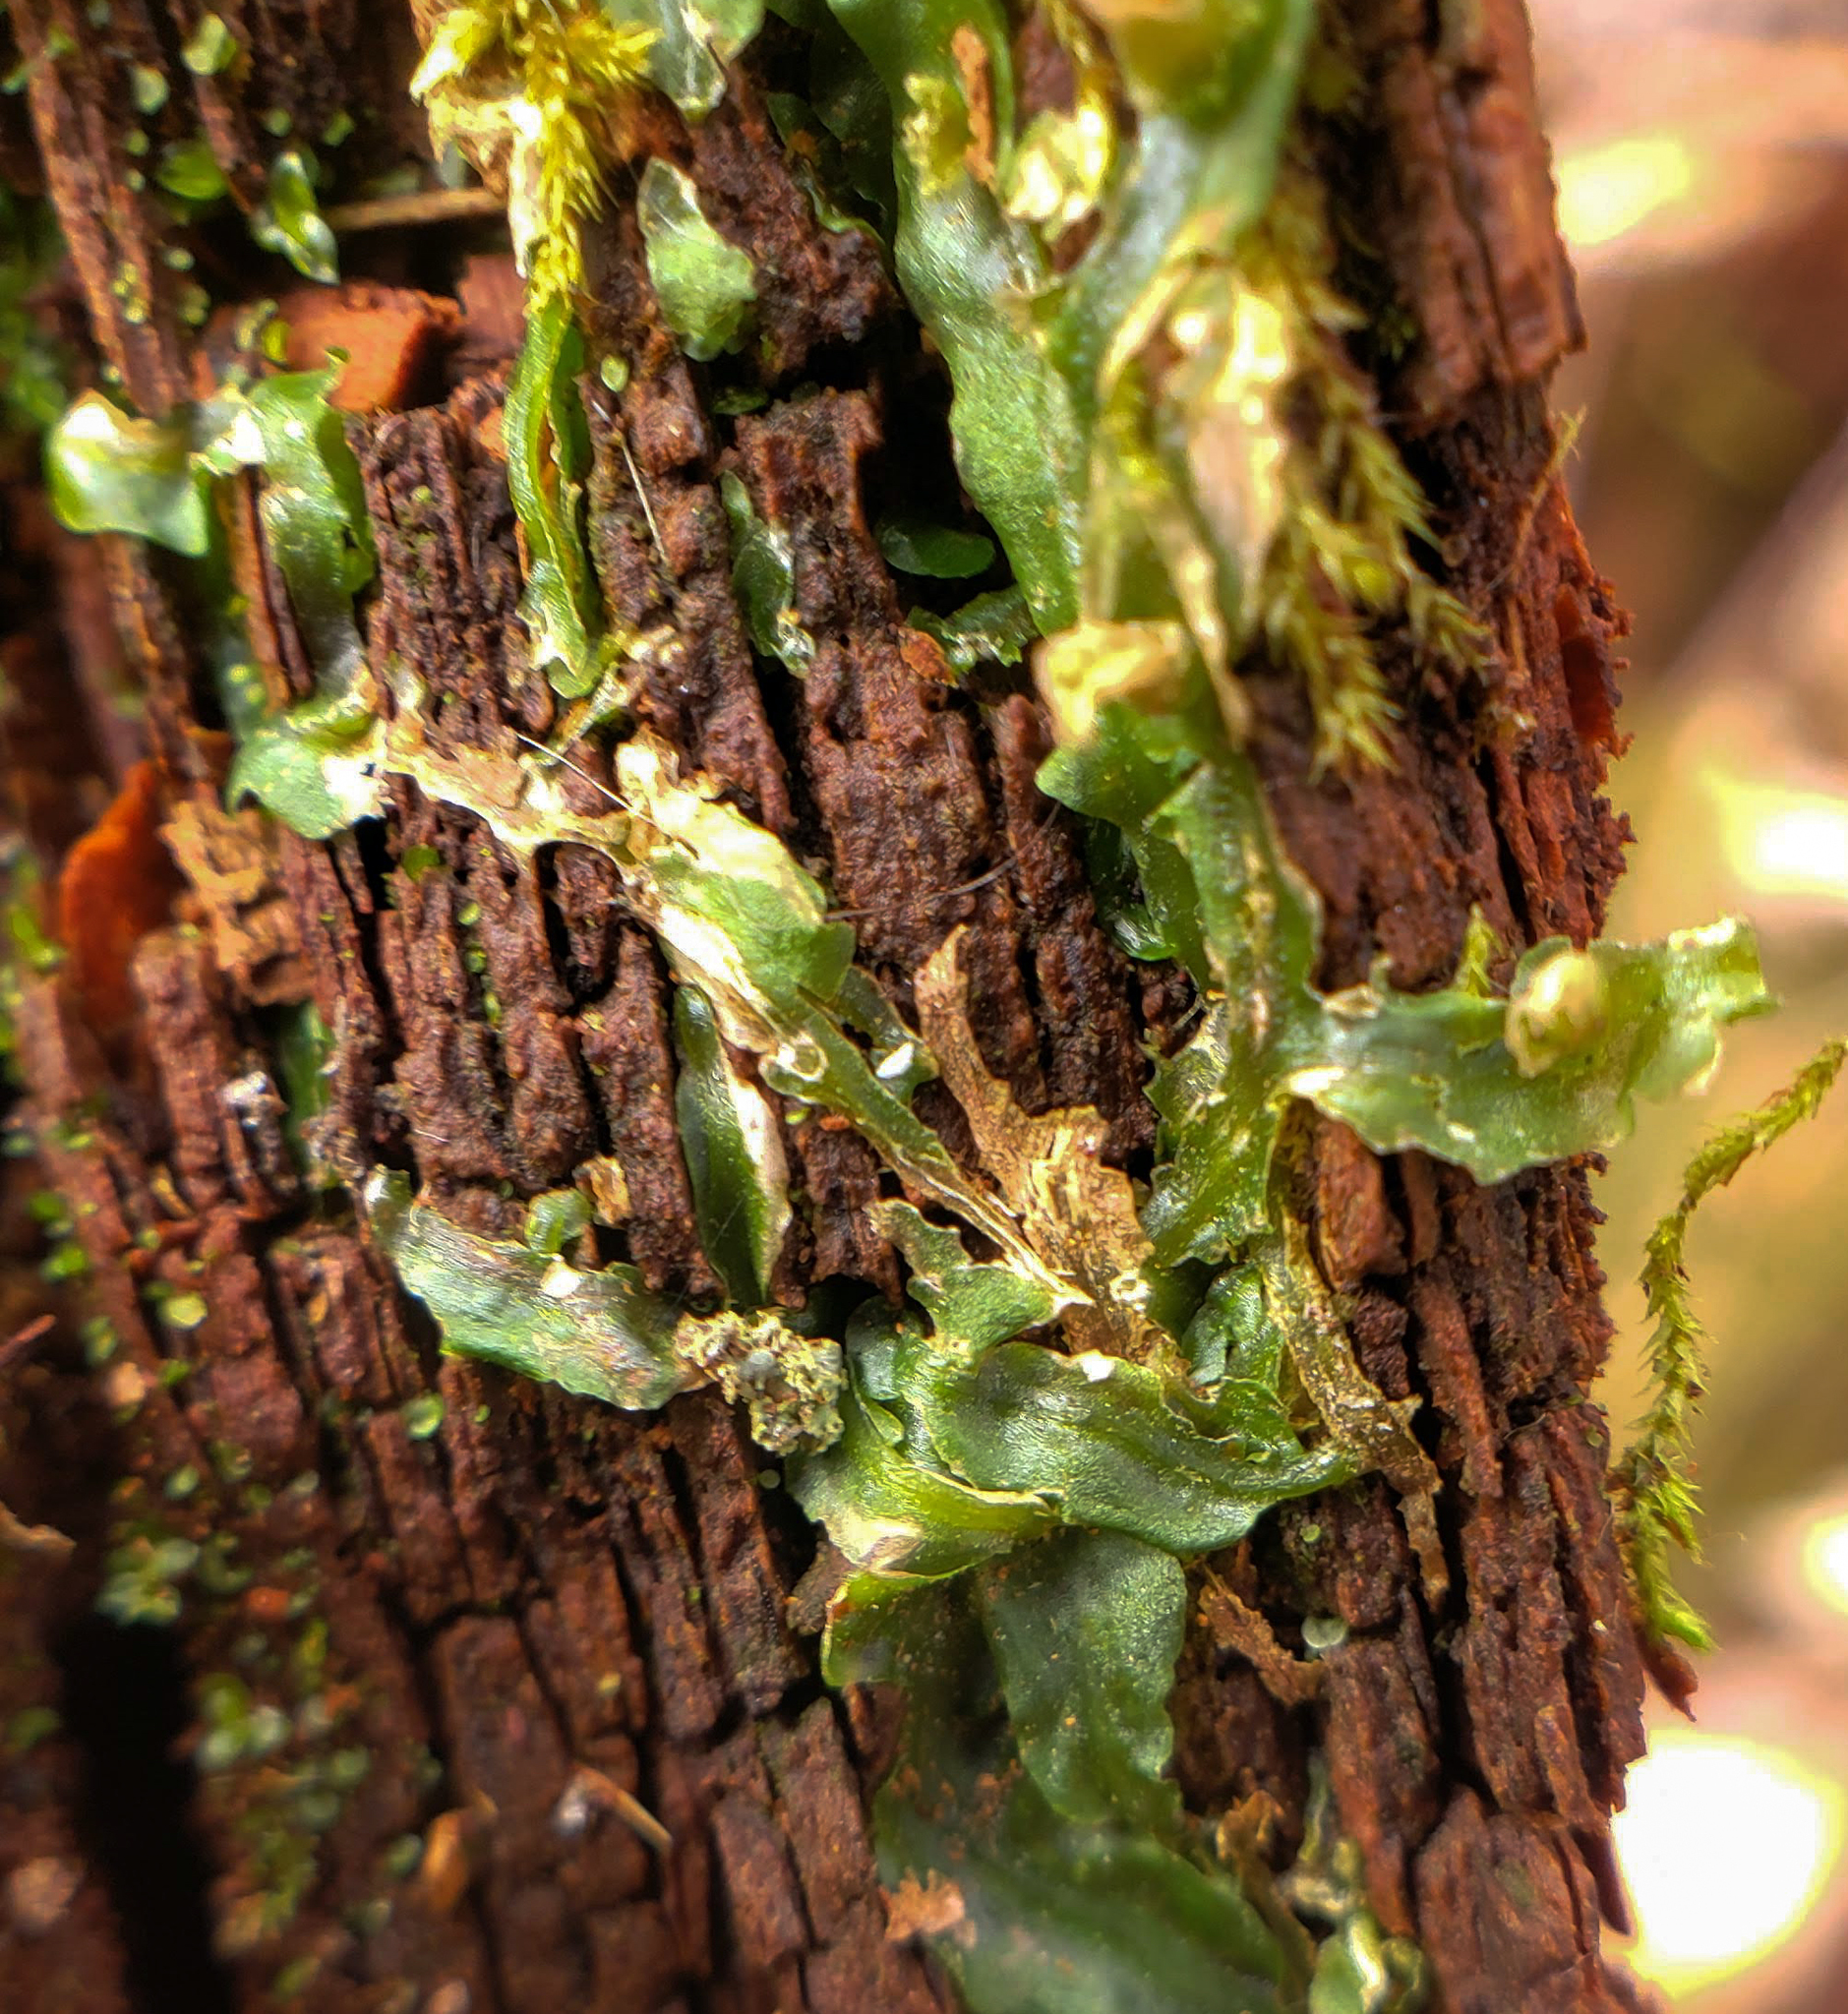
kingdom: Plantae
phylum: Marchantiophyta
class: Jungermanniopsida
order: Pallaviciniales
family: Pallaviciniaceae
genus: Pallavicinia
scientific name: Pallavicinia lyellii
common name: Veilwort
